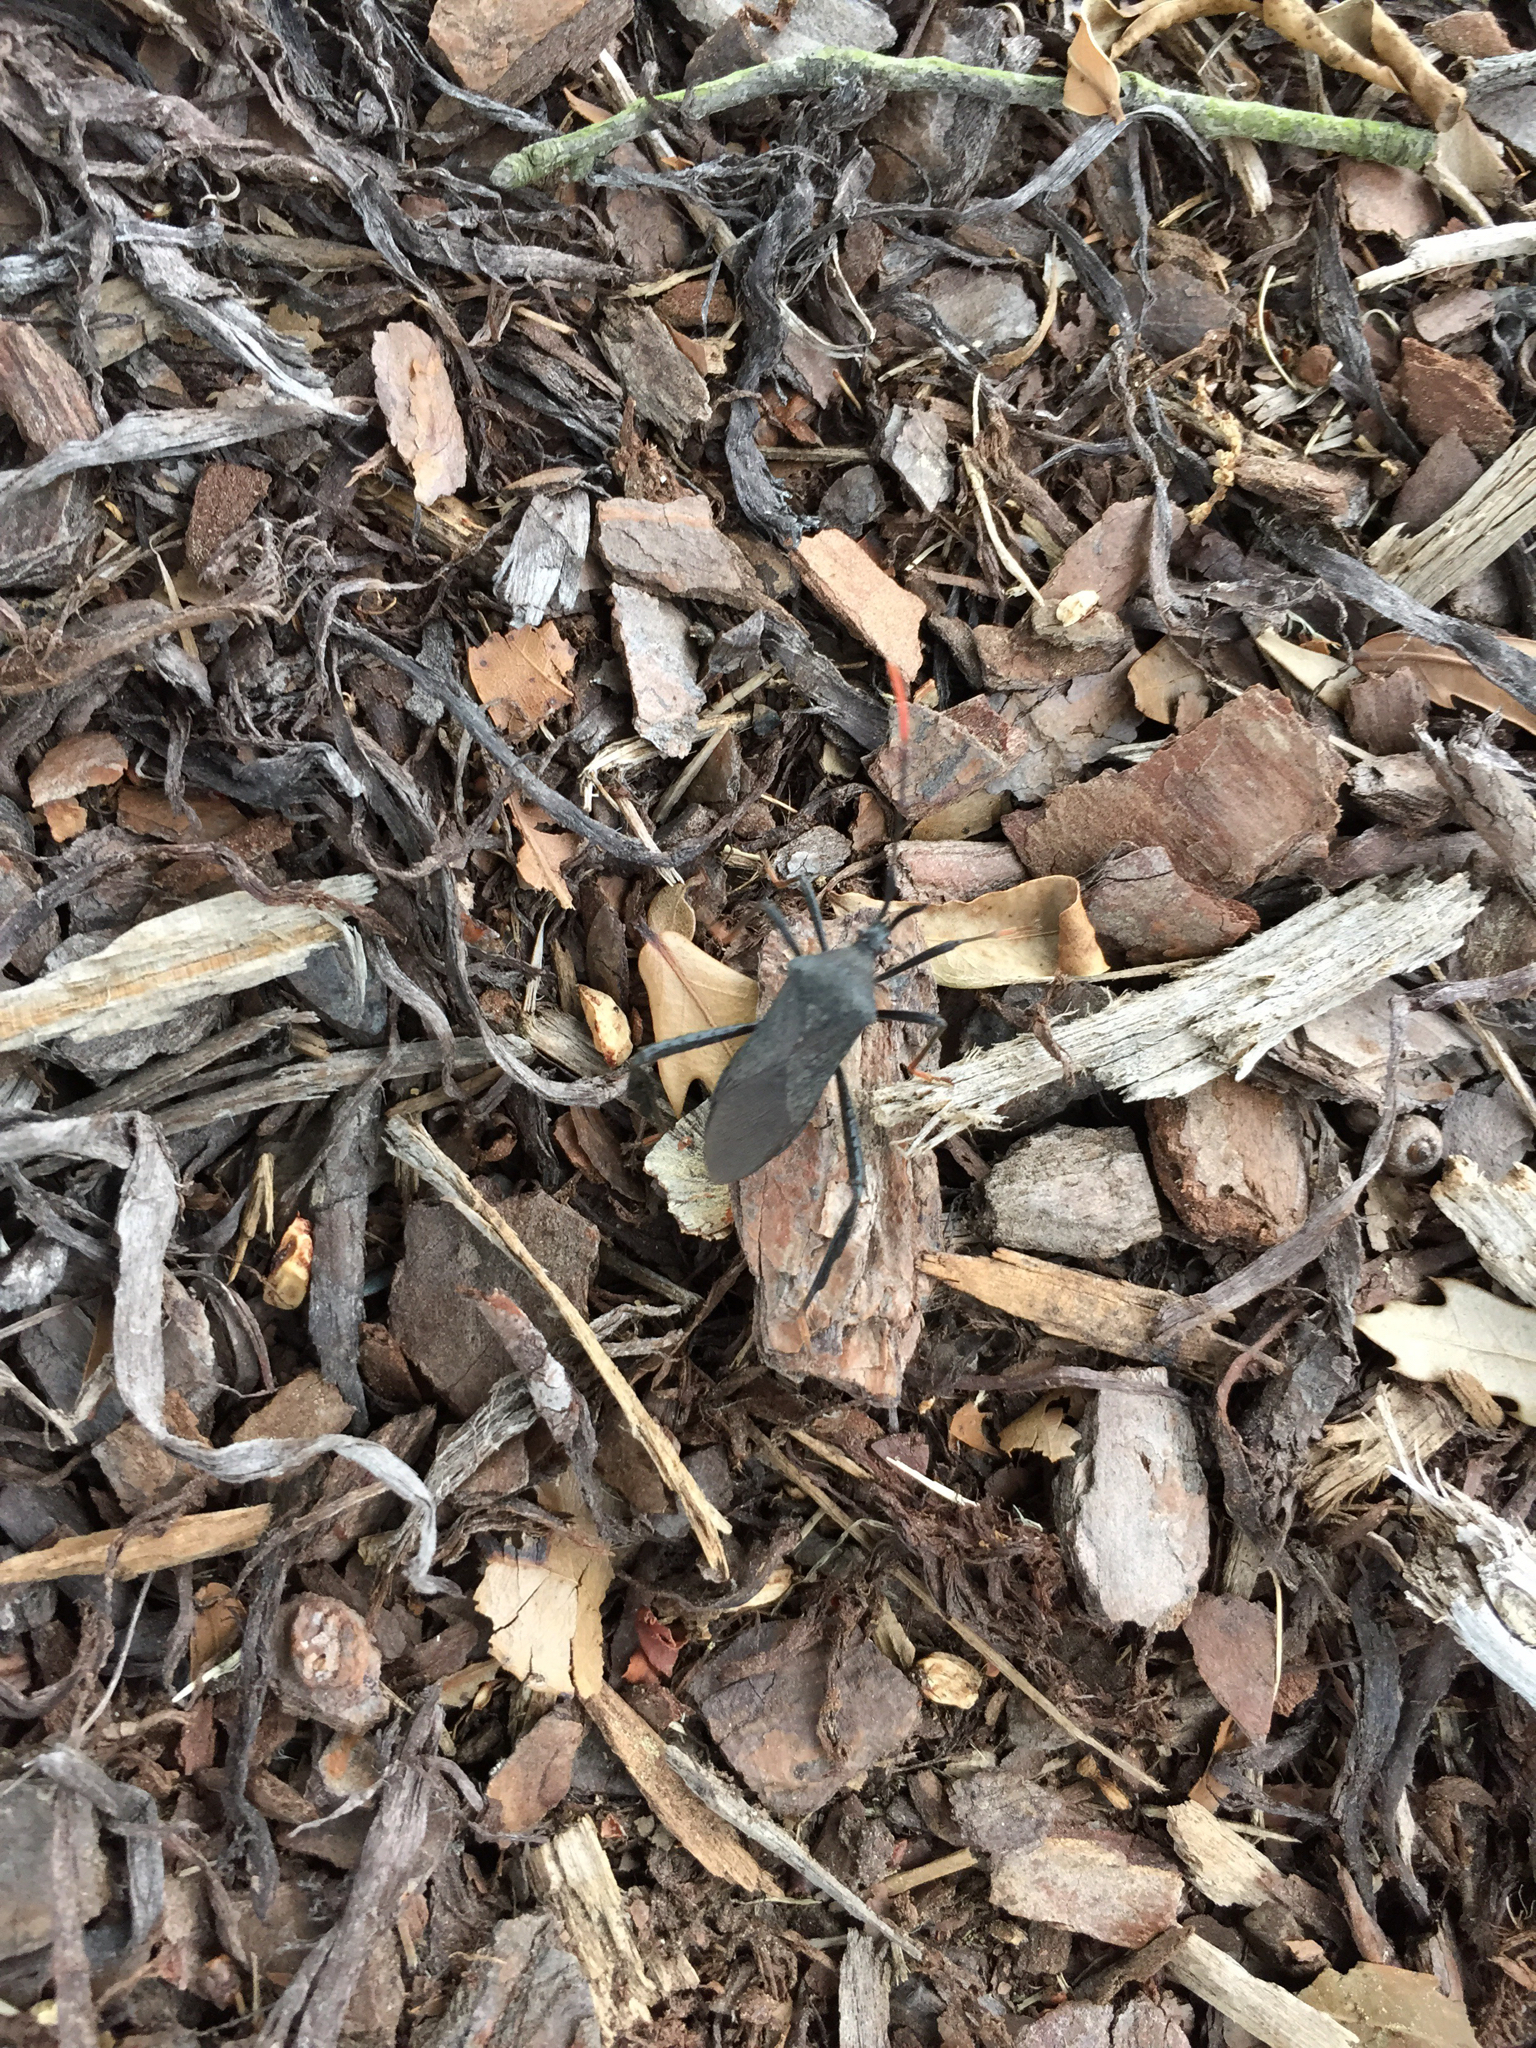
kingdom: Animalia
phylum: Arthropoda
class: Insecta
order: Hemiptera
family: Coreidae
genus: Acanthocephala
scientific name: Acanthocephala terminalis
